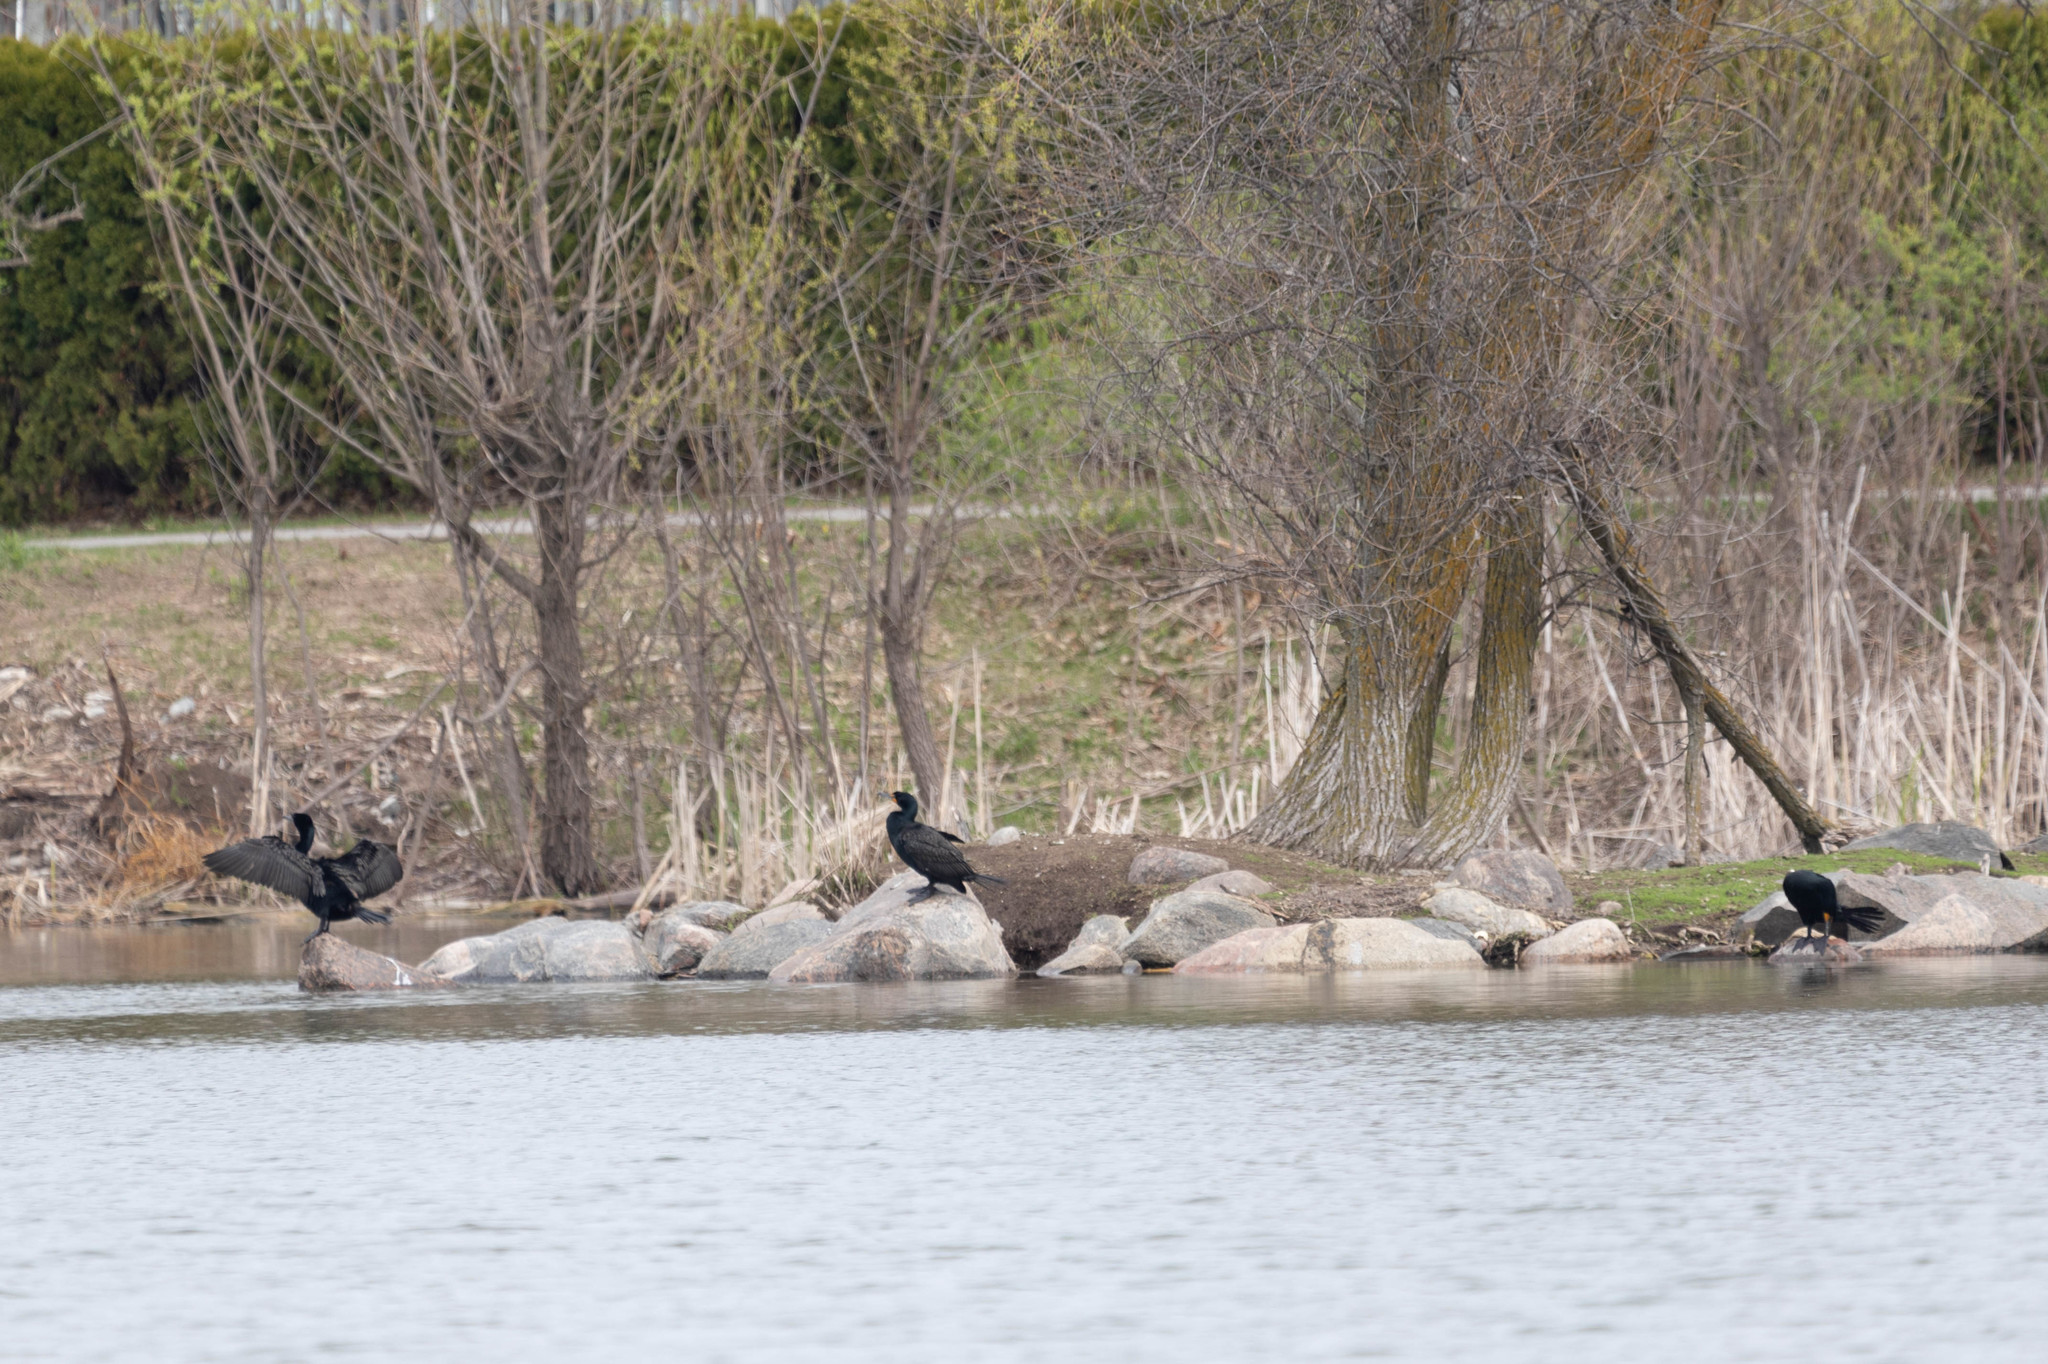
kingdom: Animalia
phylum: Chordata
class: Aves
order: Suliformes
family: Phalacrocoracidae
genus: Phalacrocorax
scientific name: Phalacrocorax auritus
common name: Double-crested cormorant
